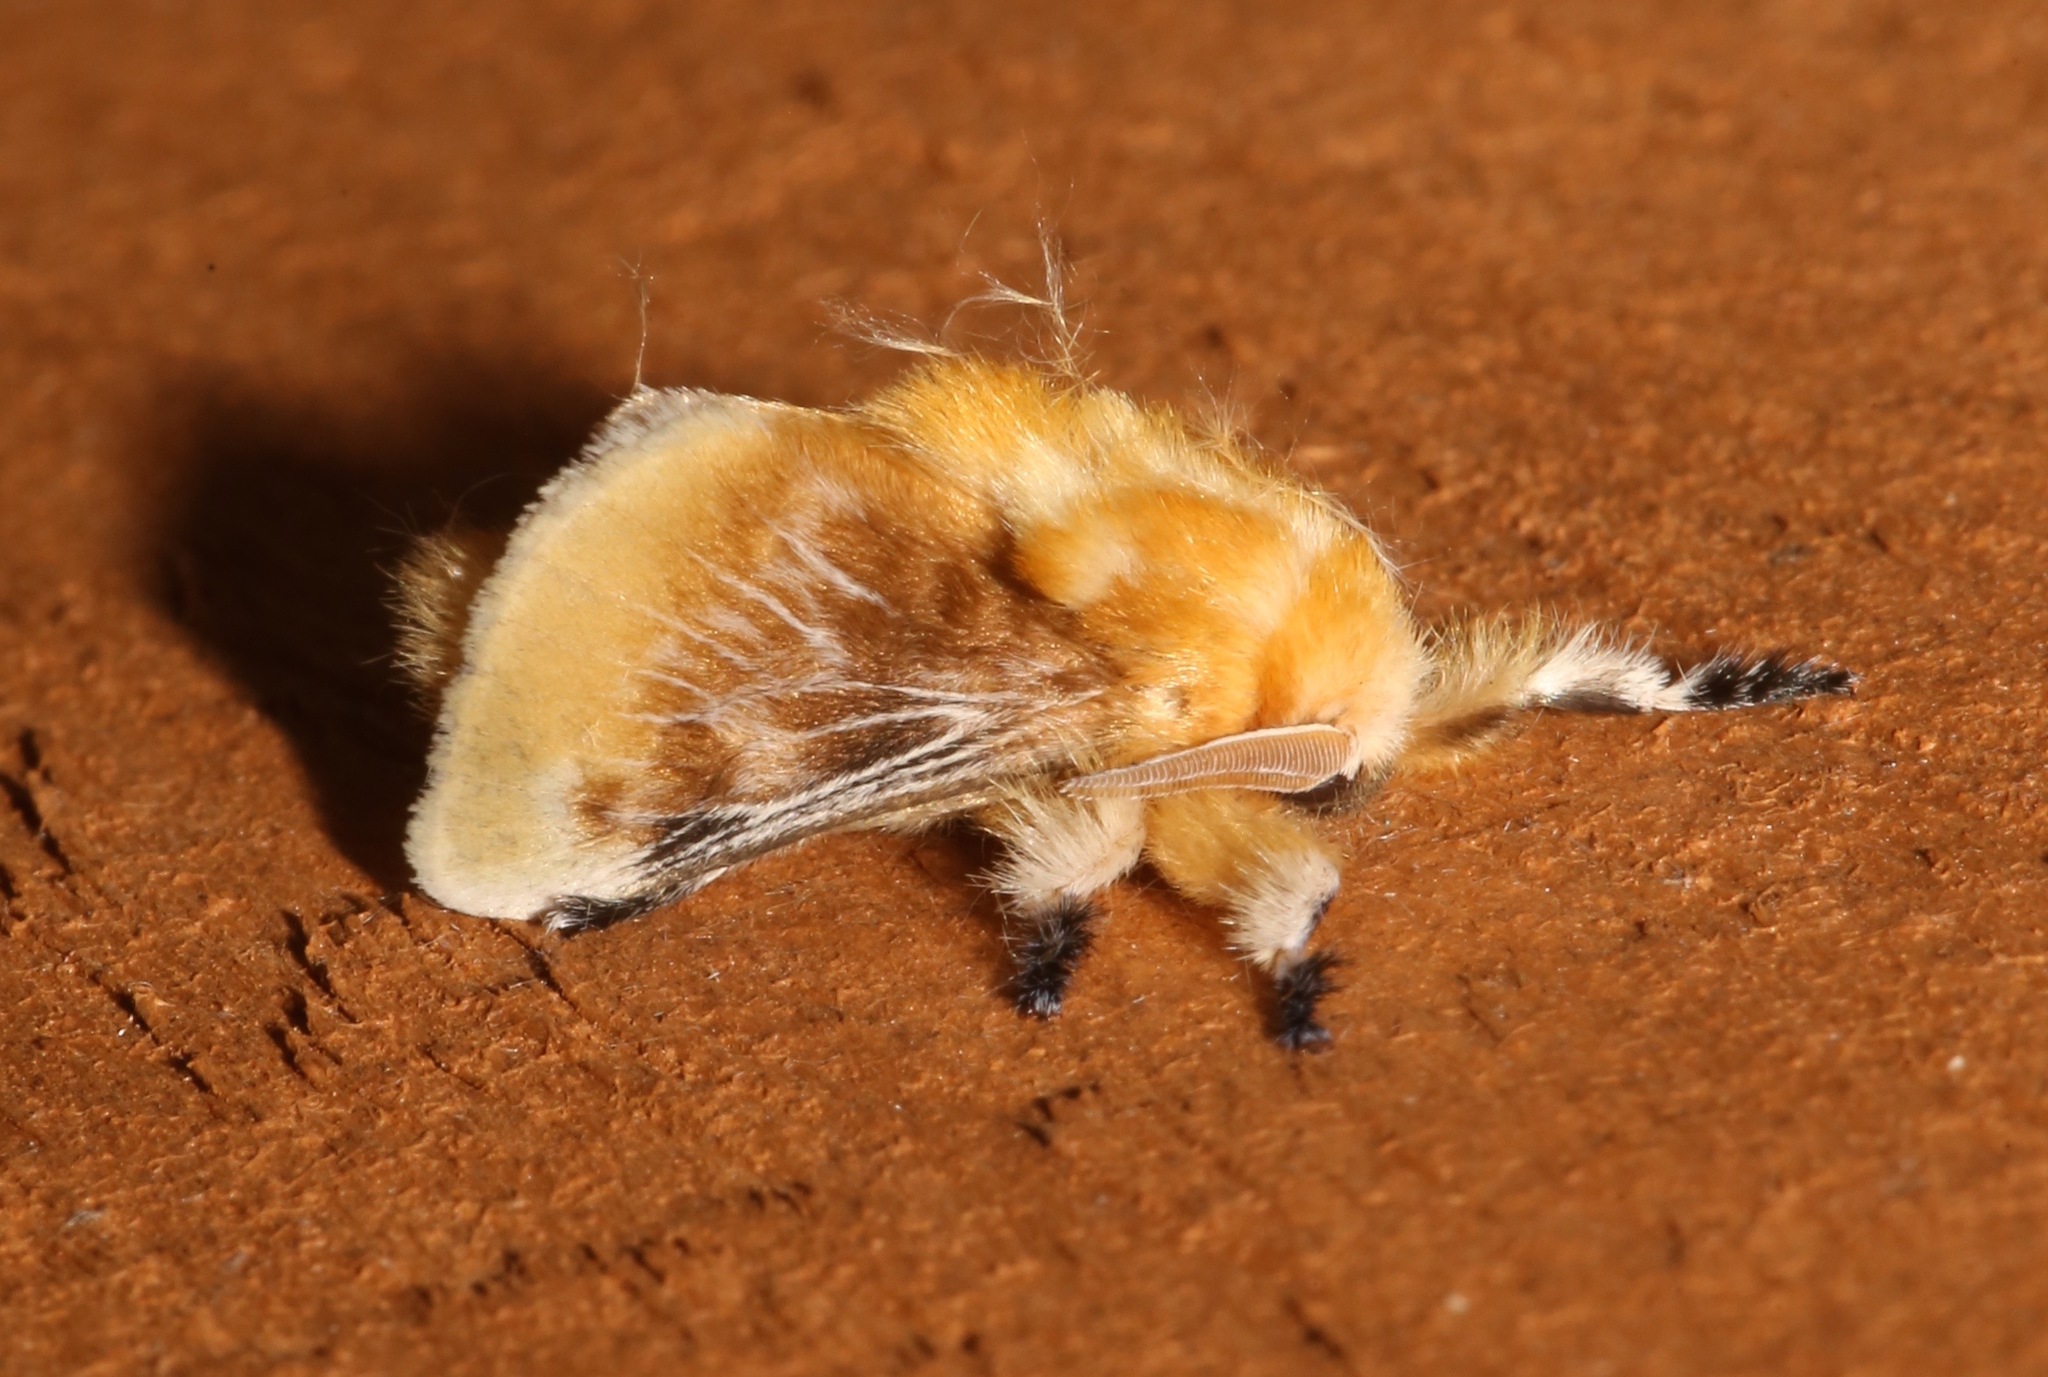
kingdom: Animalia
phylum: Arthropoda
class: Insecta
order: Lepidoptera
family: Megalopygidae
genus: Megalopyge
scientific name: Megalopyge opercularis
